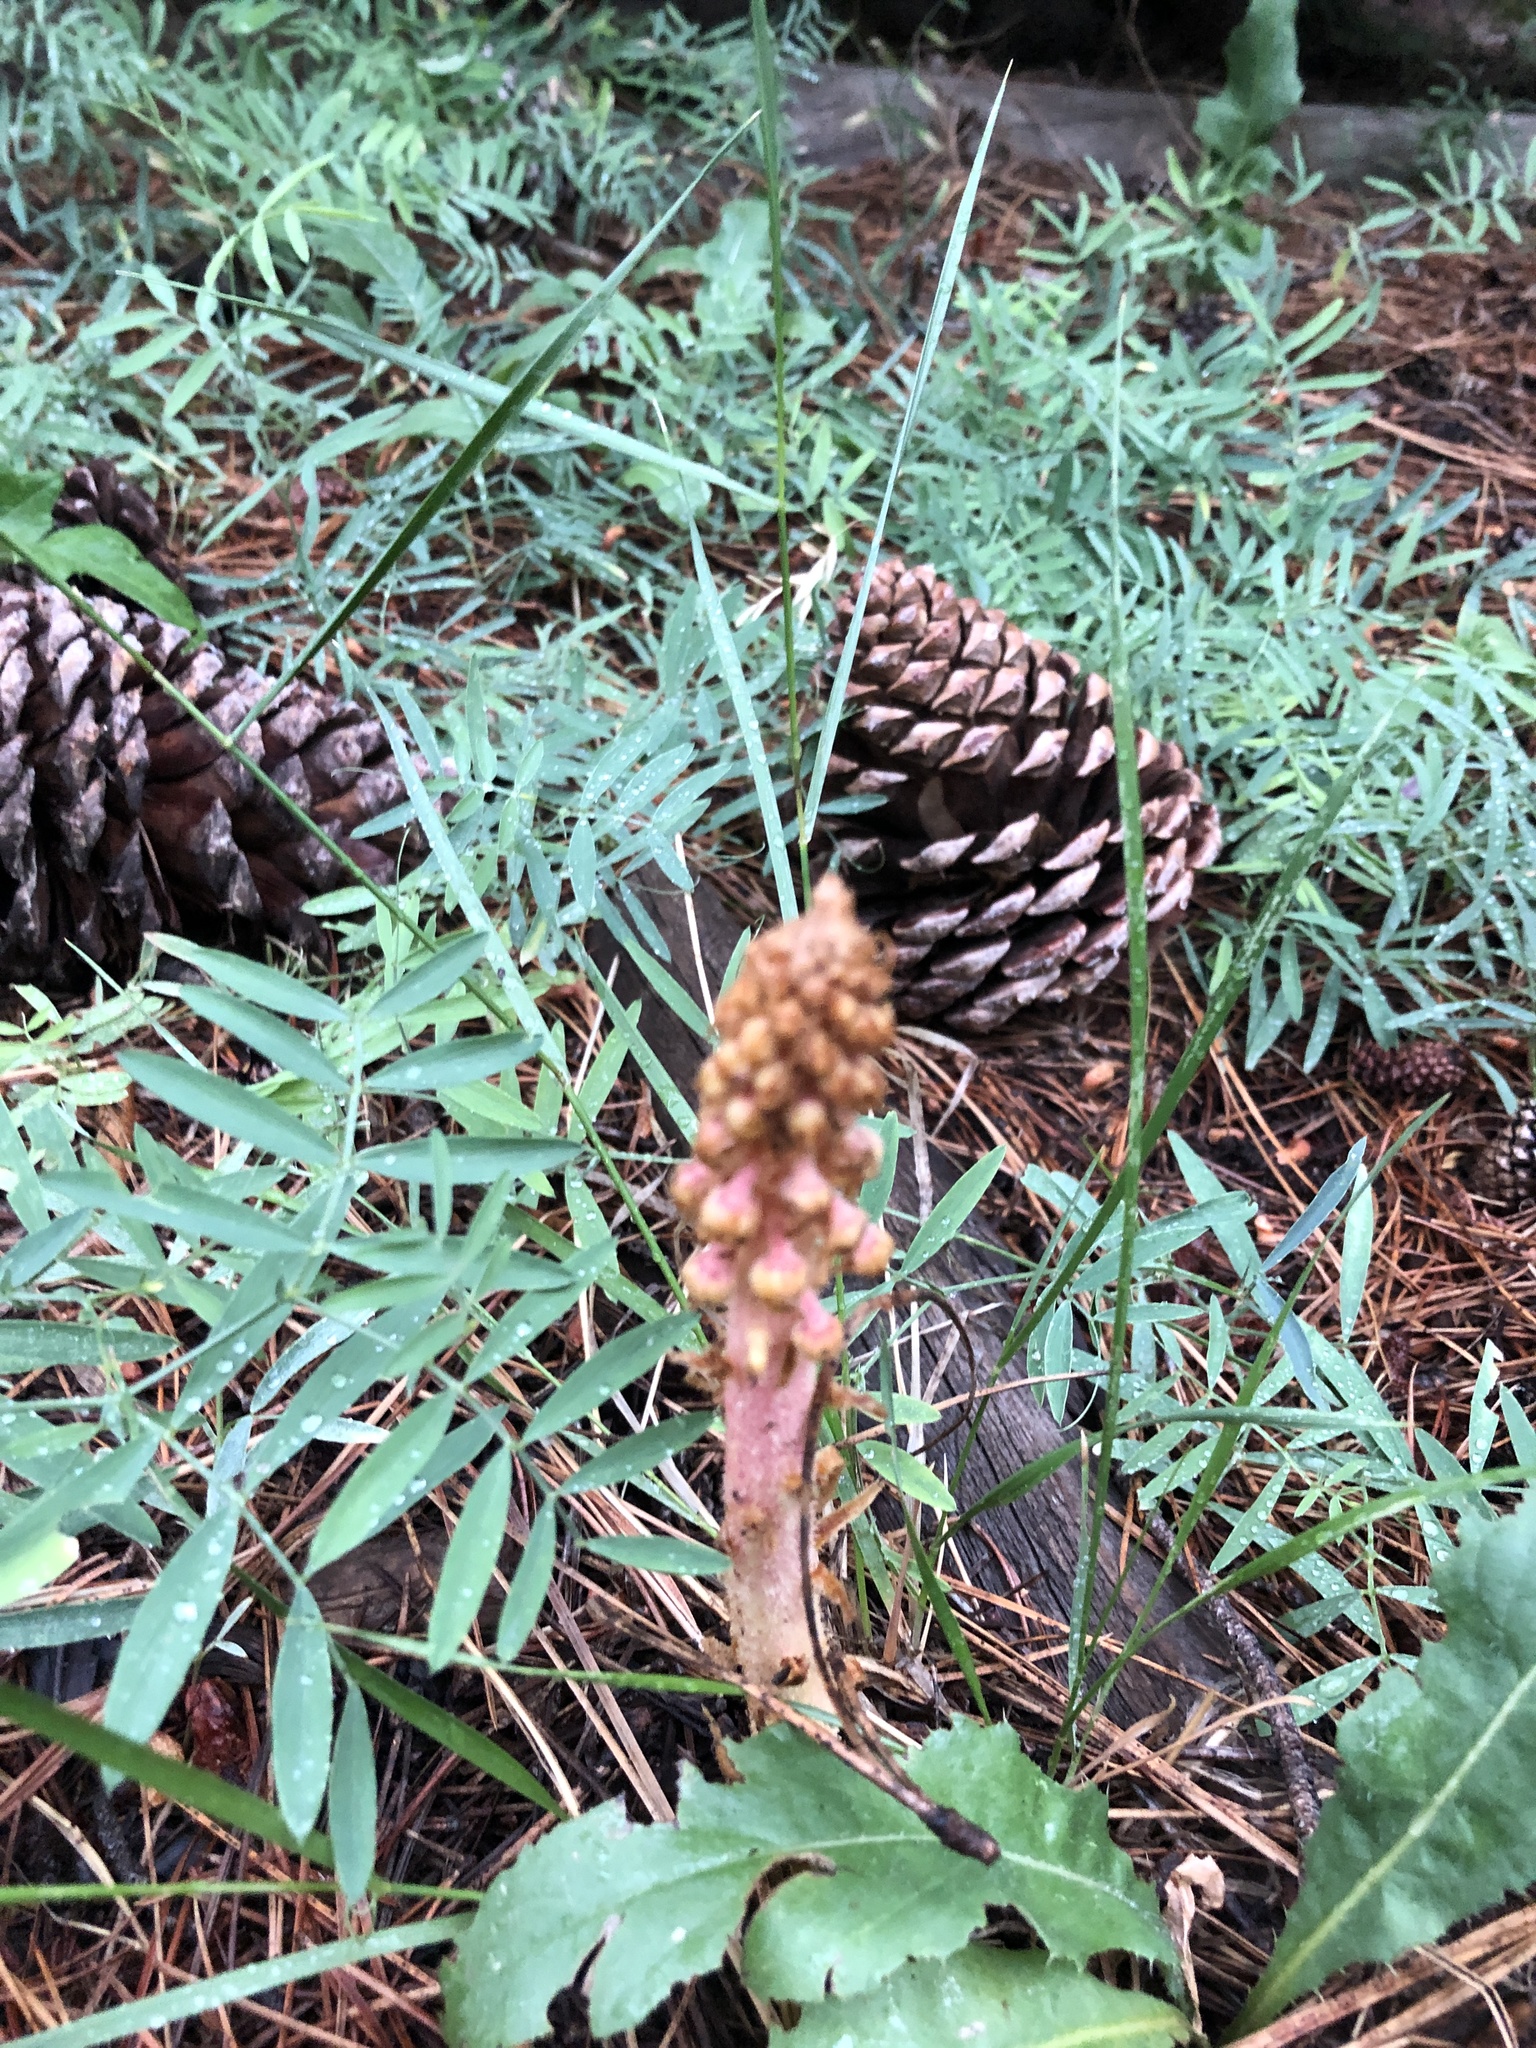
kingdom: Plantae
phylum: Tracheophyta
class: Magnoliopsida
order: Ericales
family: Ericaceae
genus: Pterospora
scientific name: Pterospora andromedea
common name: Giant bird's-nest
